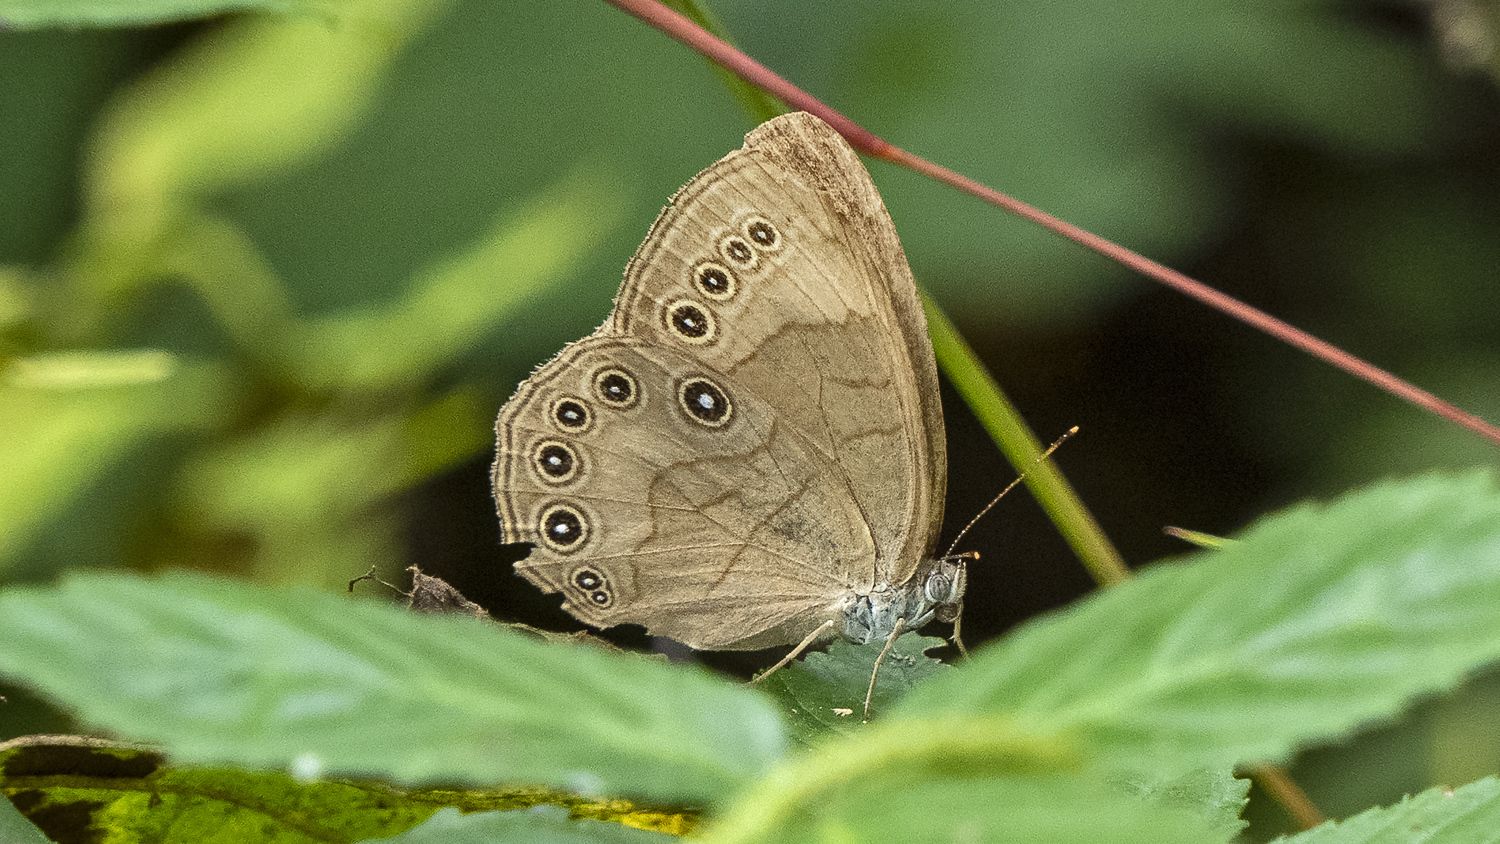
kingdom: Animalia
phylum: Arthropoda
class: Insecta
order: Lepidoptera
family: Nymphalidae
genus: Lethe
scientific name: Lethe eurydice
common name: Eyed brown
